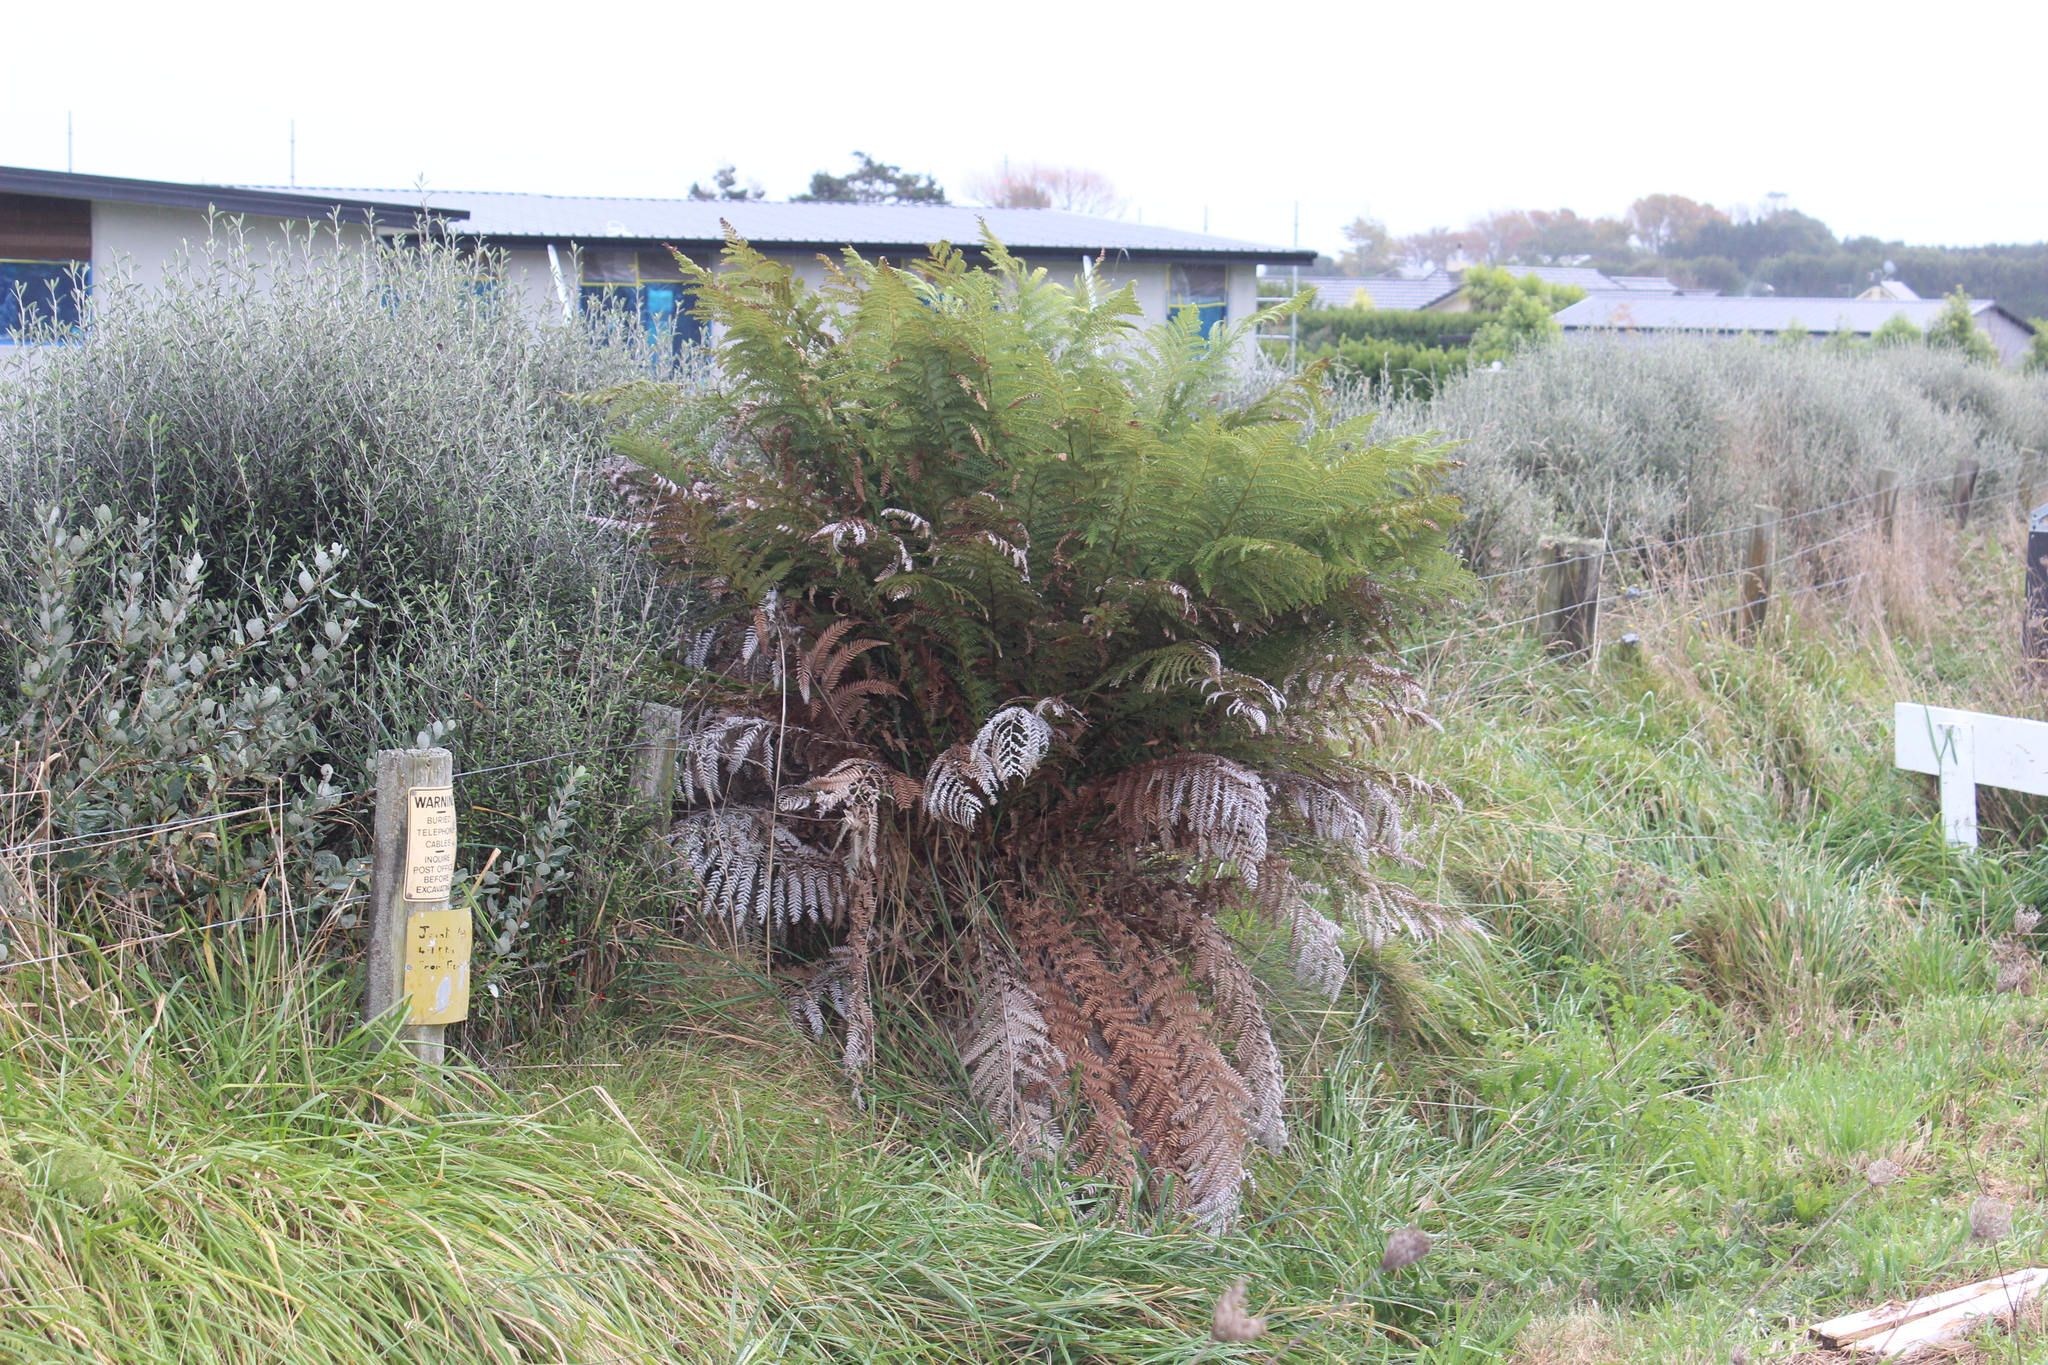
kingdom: Plantae
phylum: Tracheophyta
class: Polypodiopsida
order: Cyatheales
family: Dicksoniaceae
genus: Dicksonia
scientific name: Dicksonia fibrosa
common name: Golden tree fern
